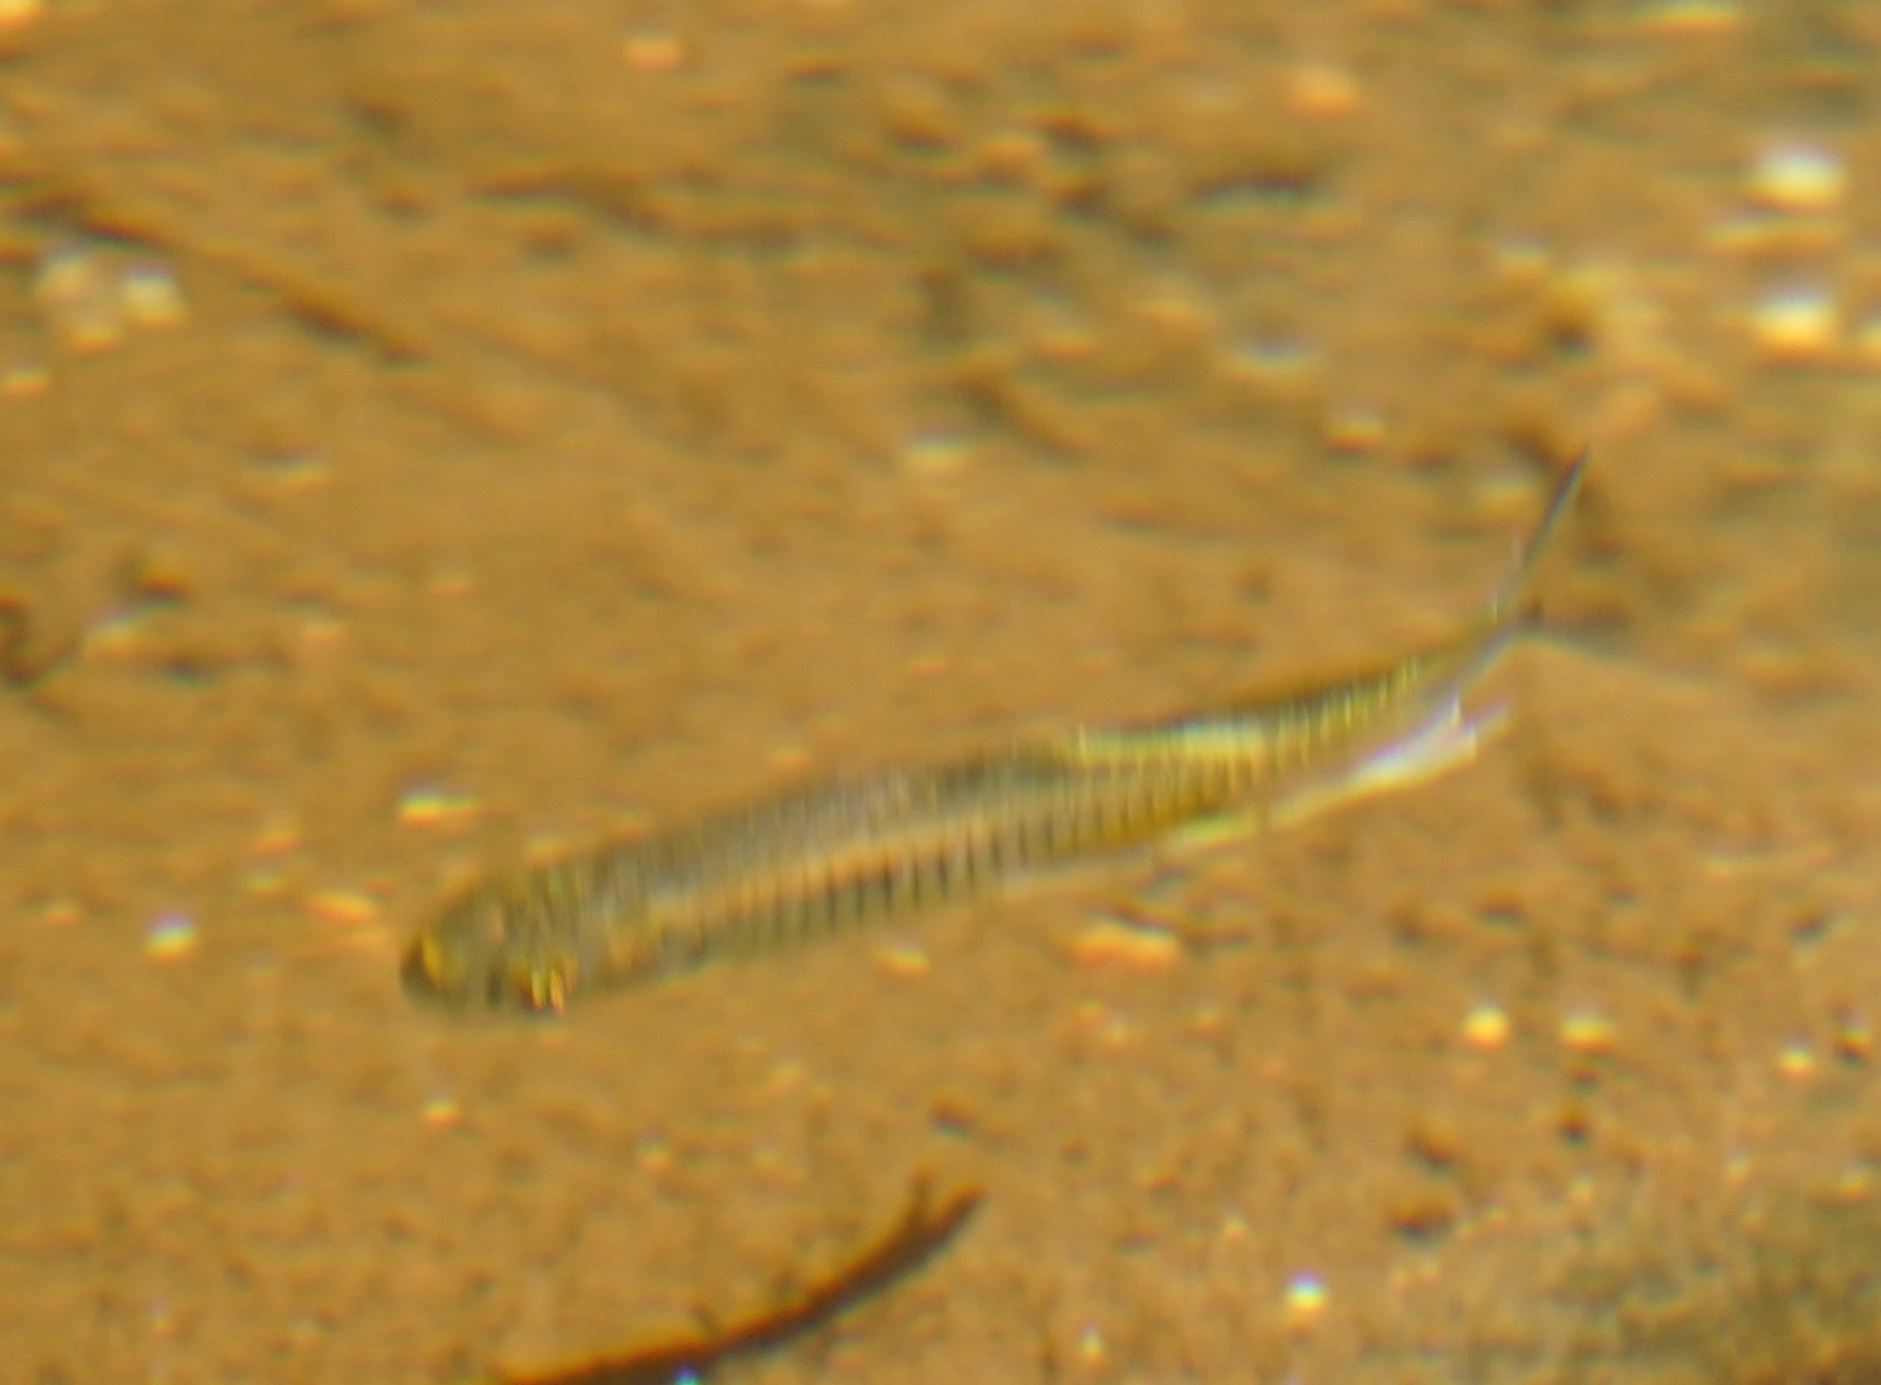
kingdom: Animalia
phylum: Chordata
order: Atheriniformes
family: Pseudomugilidae
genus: Pseudomugil
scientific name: Pseudomugil signifer
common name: Blue eye
